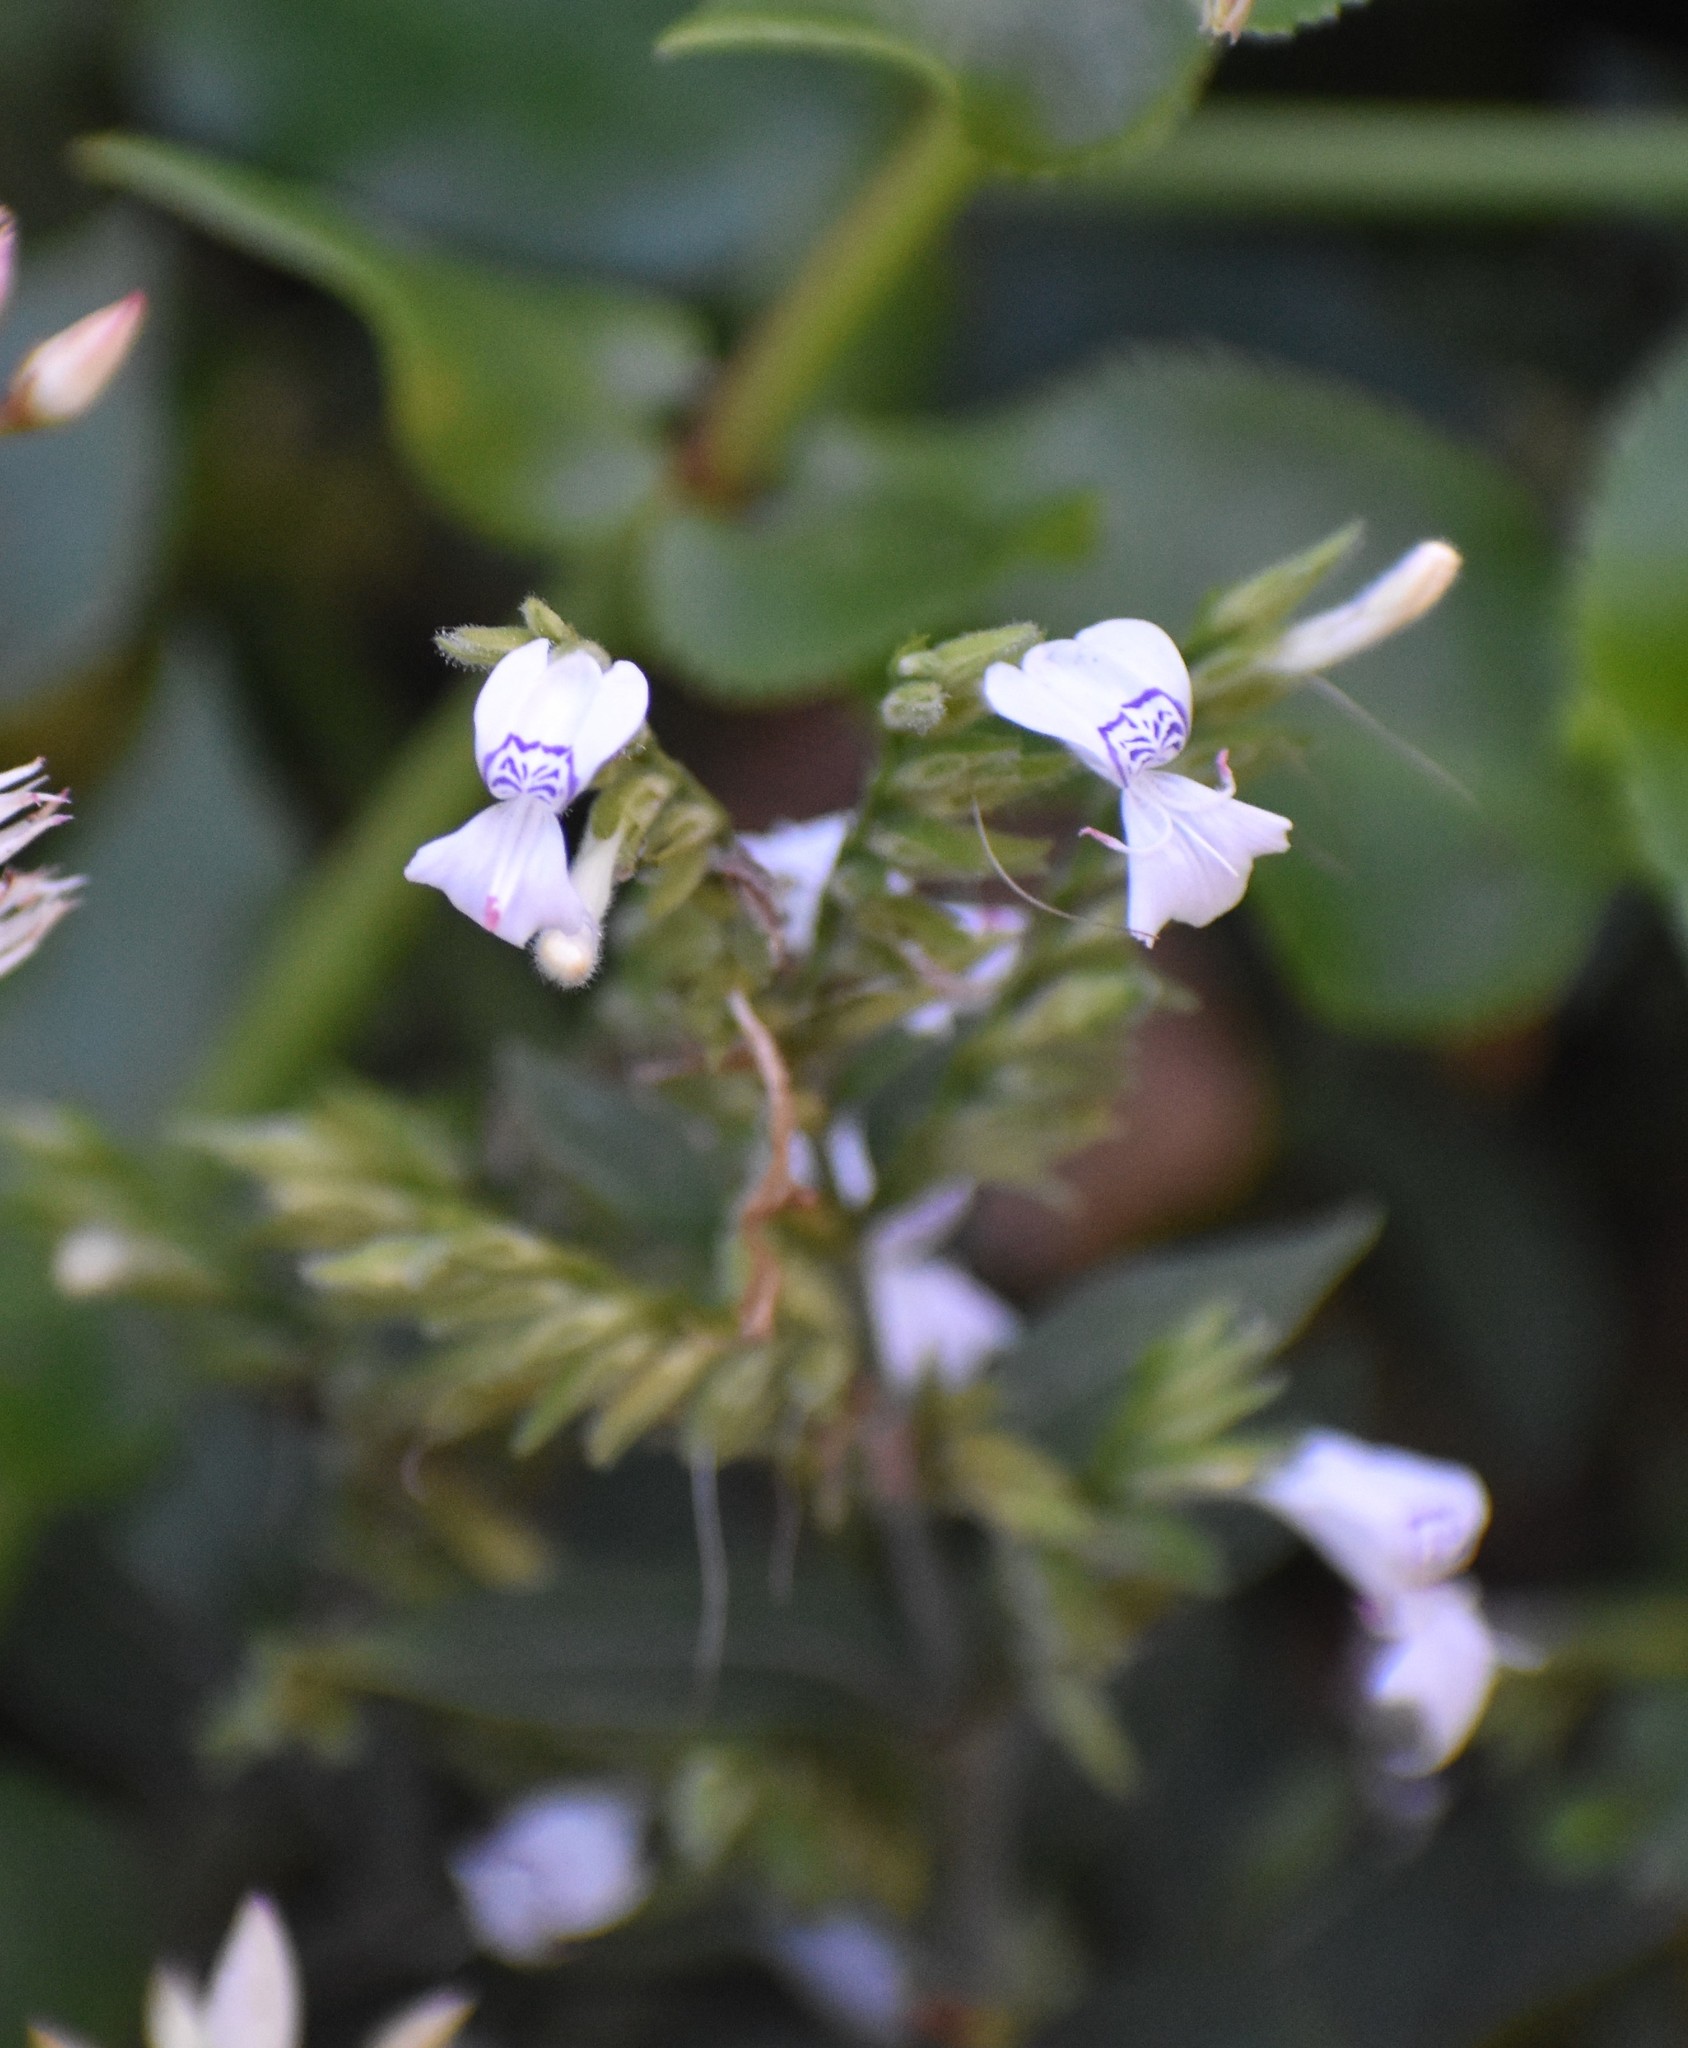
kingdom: Plantae
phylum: Tracheophyta
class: Magnoliopsida
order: Lamiales
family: Acanthaceae
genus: Hypoestes
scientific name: Hypoestes forskaolii
